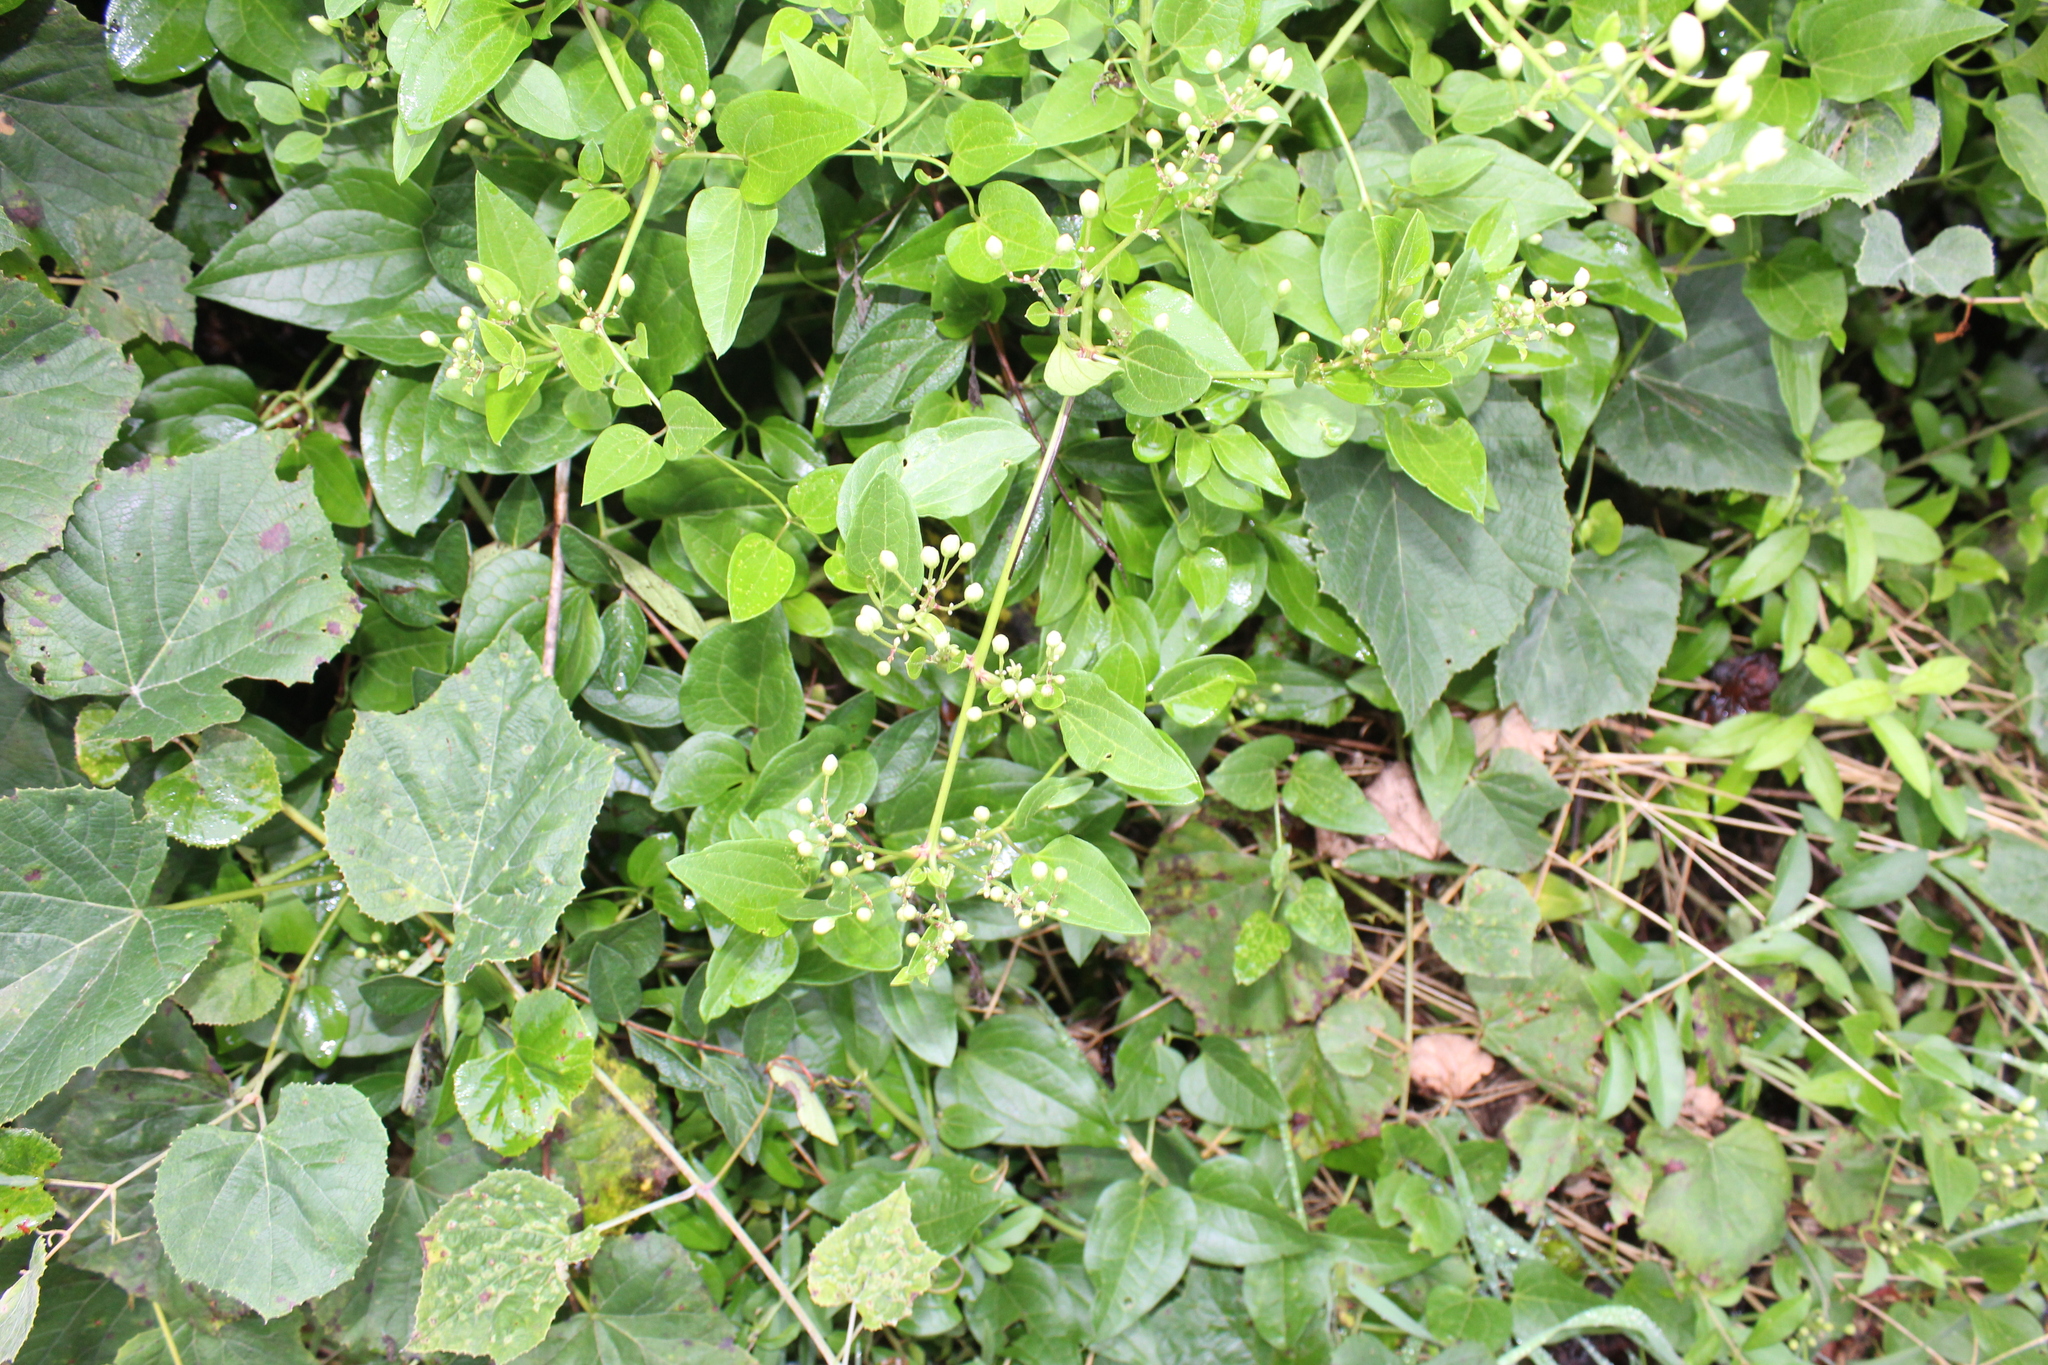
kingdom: Plantae
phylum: Tracheophyta
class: Magnoliopsida
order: Ranunculales
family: Ranunculaceae
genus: Clematis
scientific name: Clematis terniflora
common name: Sweet autumn clematis
